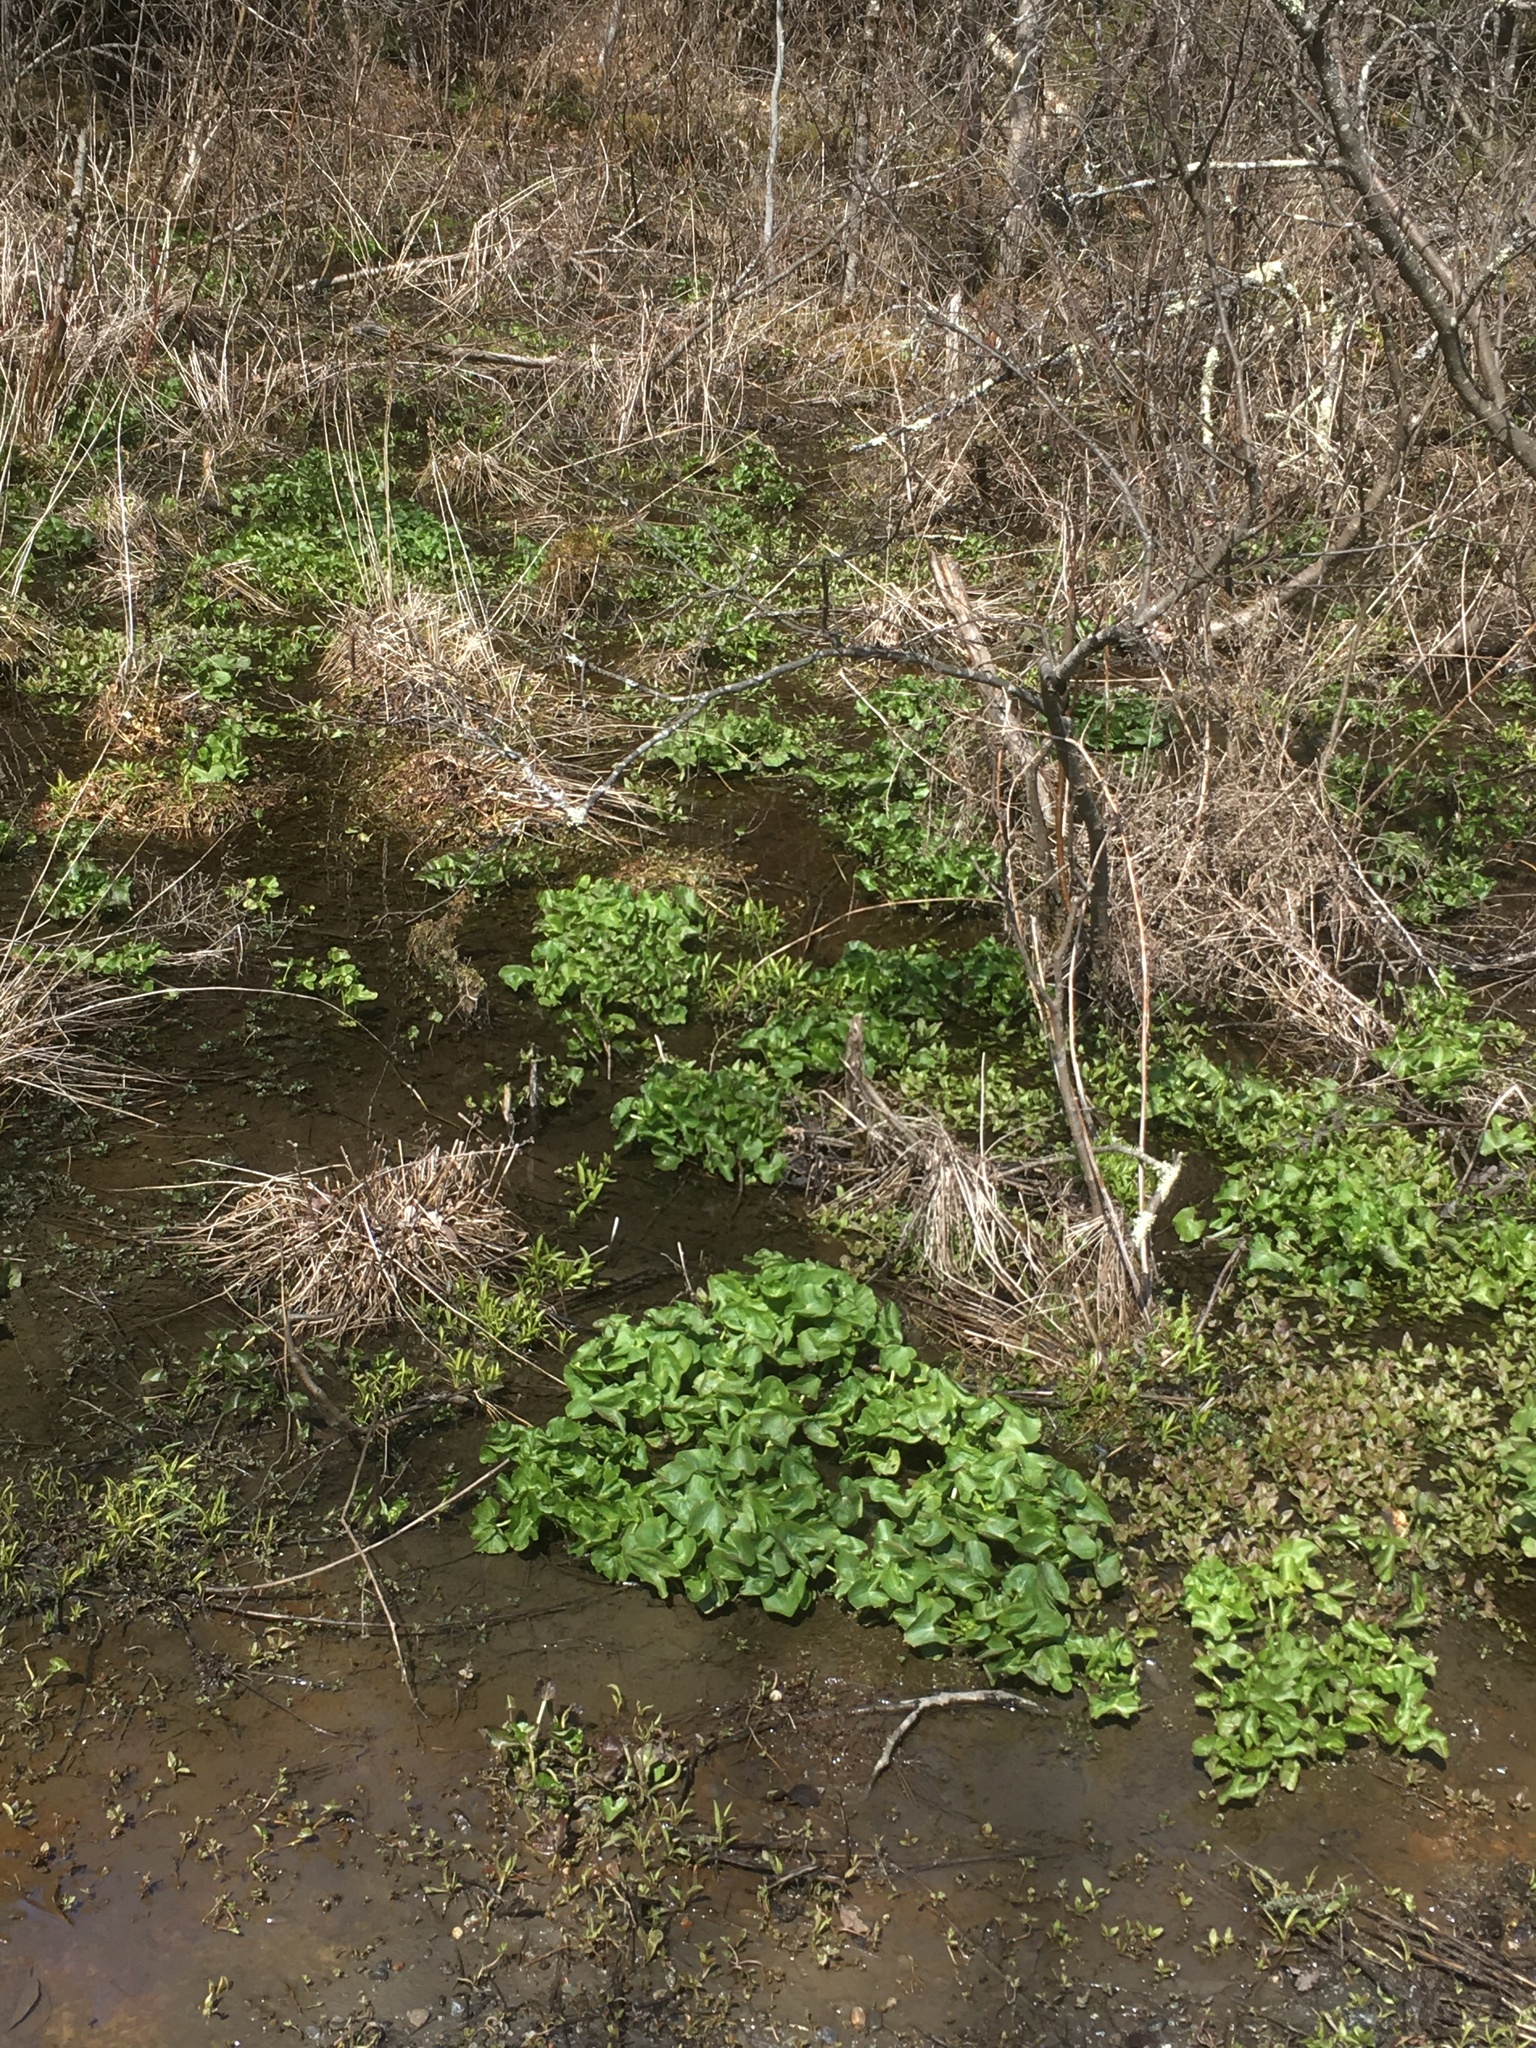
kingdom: Plantae
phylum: Tracheophyta
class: Magnoliopsida
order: Ranunculales
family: Ranunculaceae
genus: Caltha
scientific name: Caltha palustris
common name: Marsh marigold
